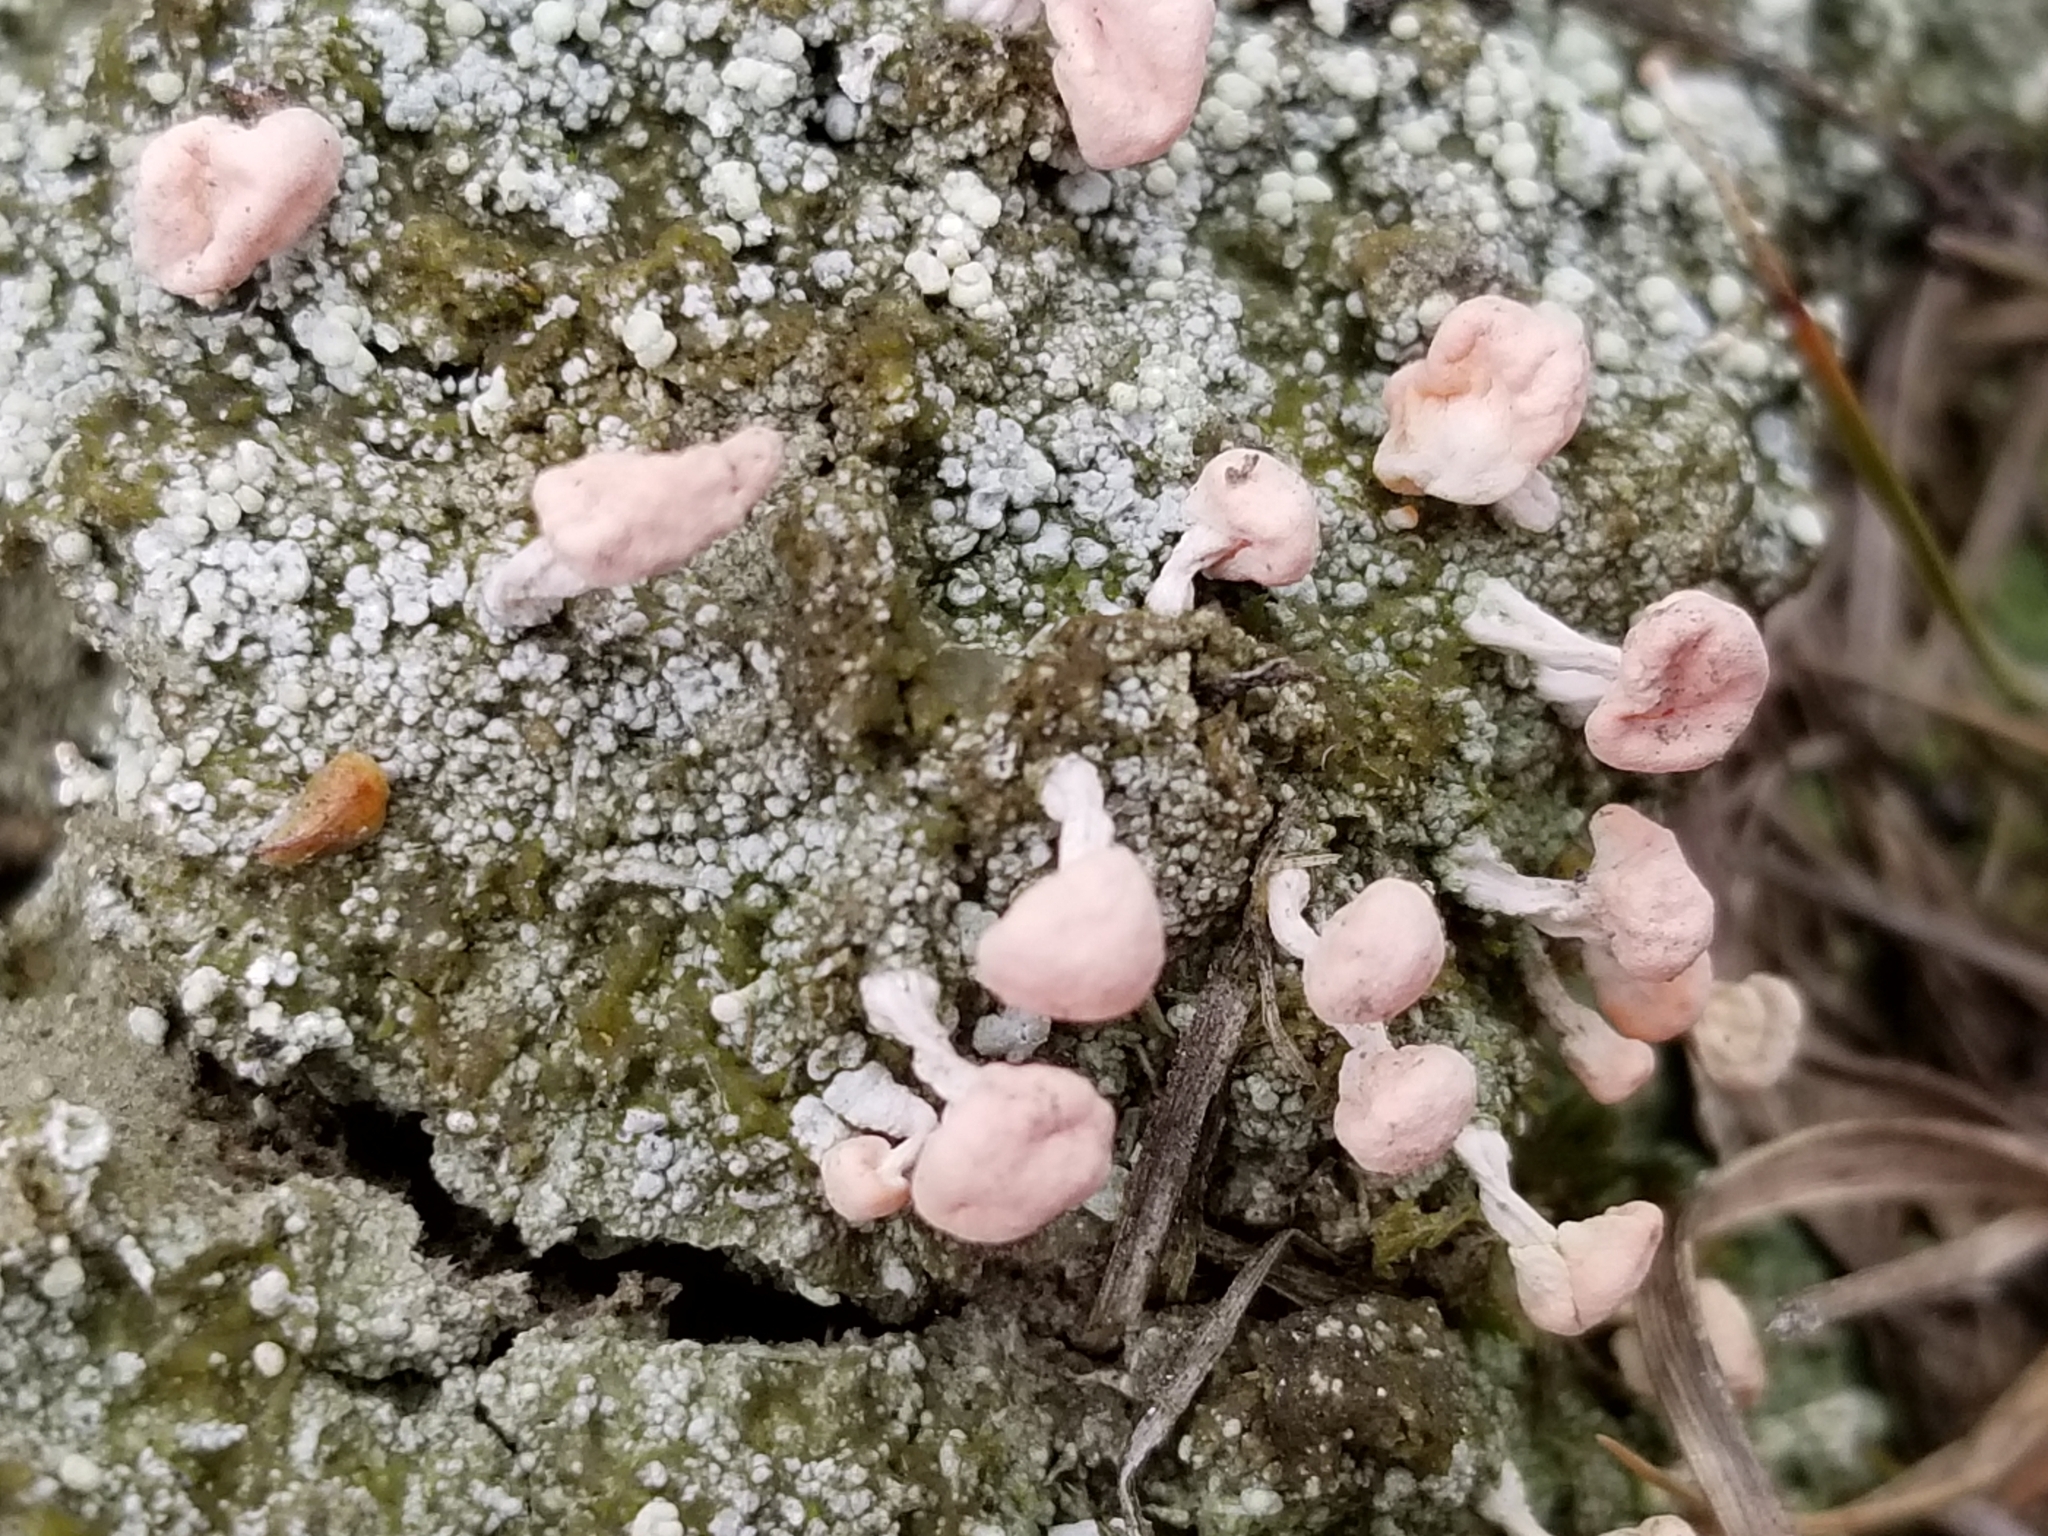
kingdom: Fungi
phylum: Ascomycota
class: Lecanoromycetes
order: Pertusariales
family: Icmadophilaceae
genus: Dibaeis
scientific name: Dibaeis baeomyces
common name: Pink earth lichen
